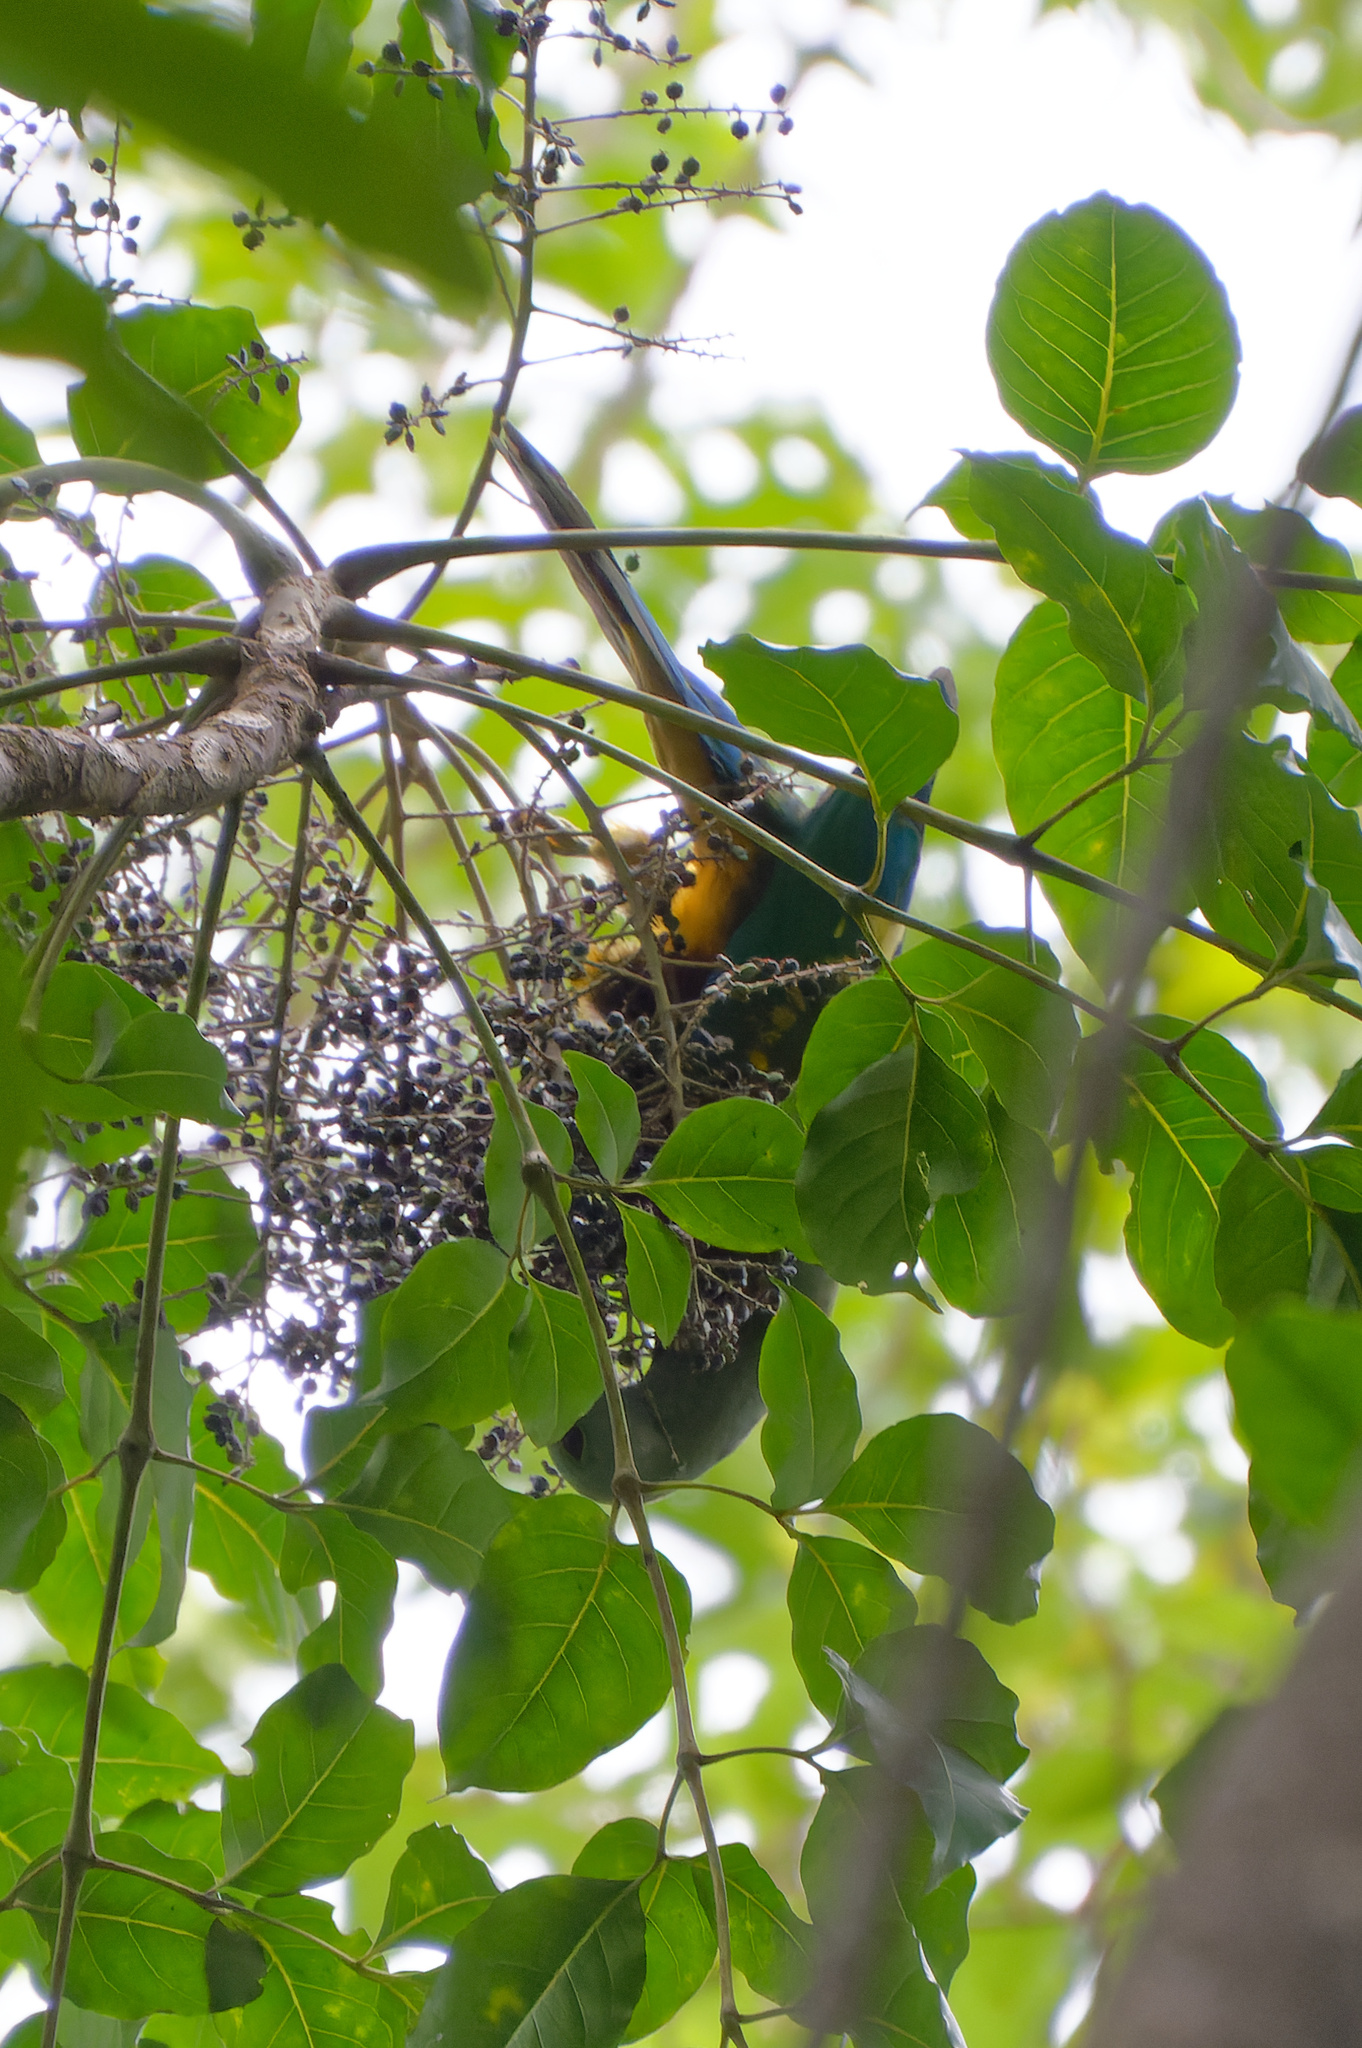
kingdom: Animalia
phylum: Chordata
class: Aves
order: Columbiformes
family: Columbidae
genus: Ptilinopus
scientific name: Ptilinopus magnificus
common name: Wompoo fruit dove
